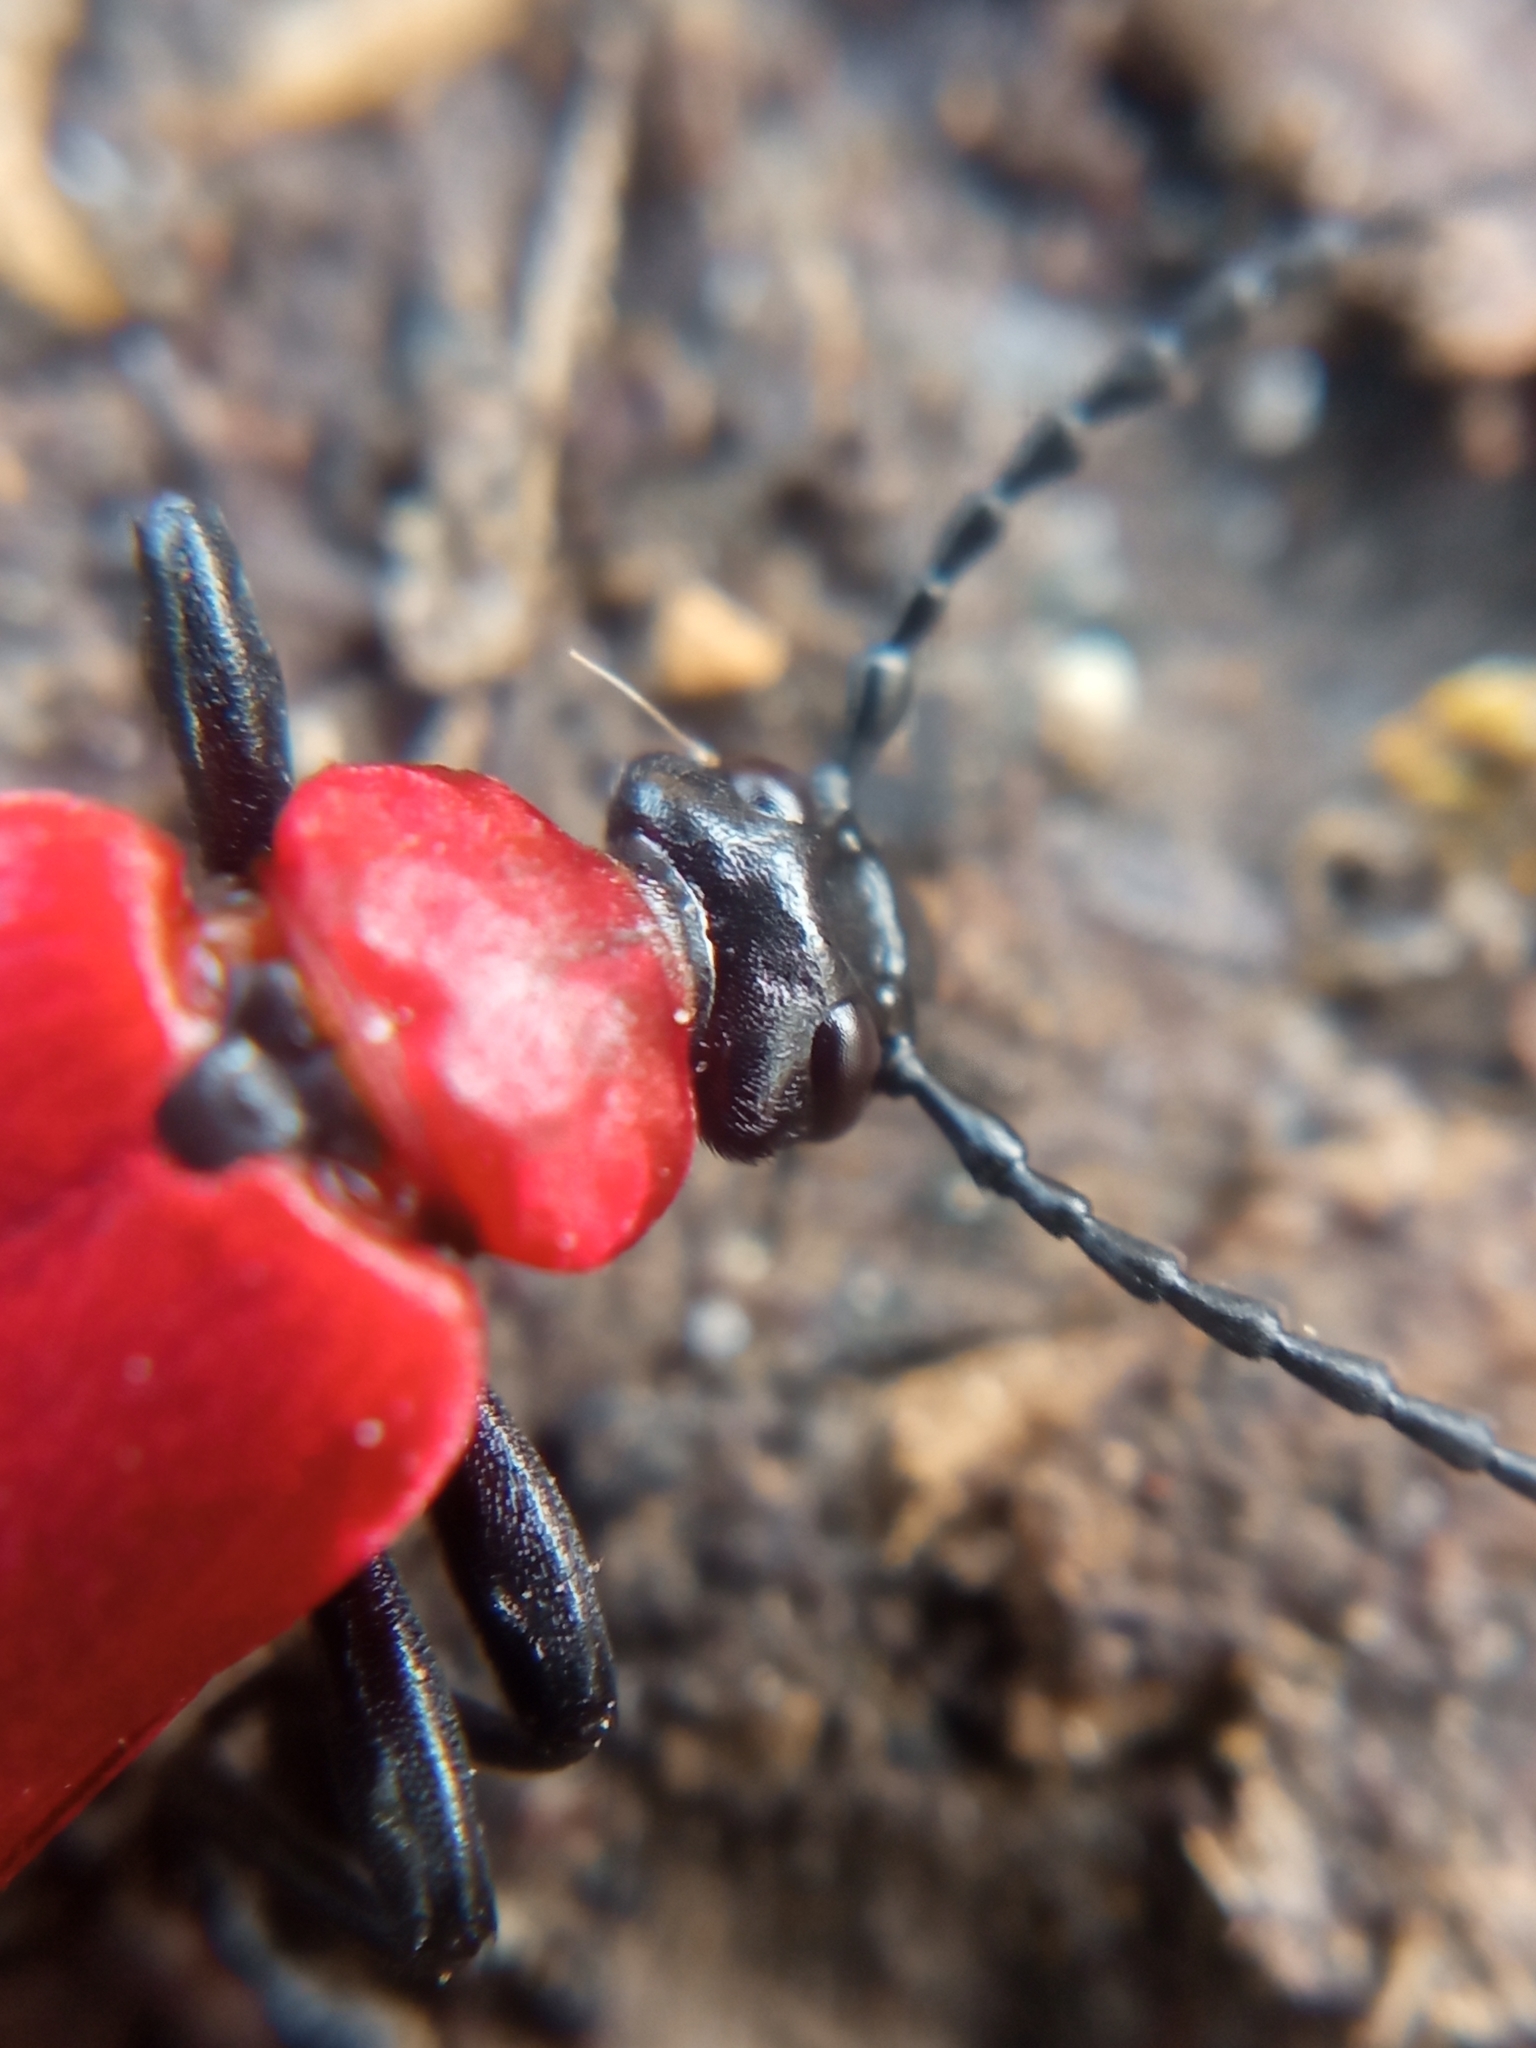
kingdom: Animalia
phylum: Arthropoda
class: Insecta
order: Coleoptera
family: Pyrochroidae
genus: Pyrochroa
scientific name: Pyrochroa coccinea
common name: Black-headed cardinal beetle
